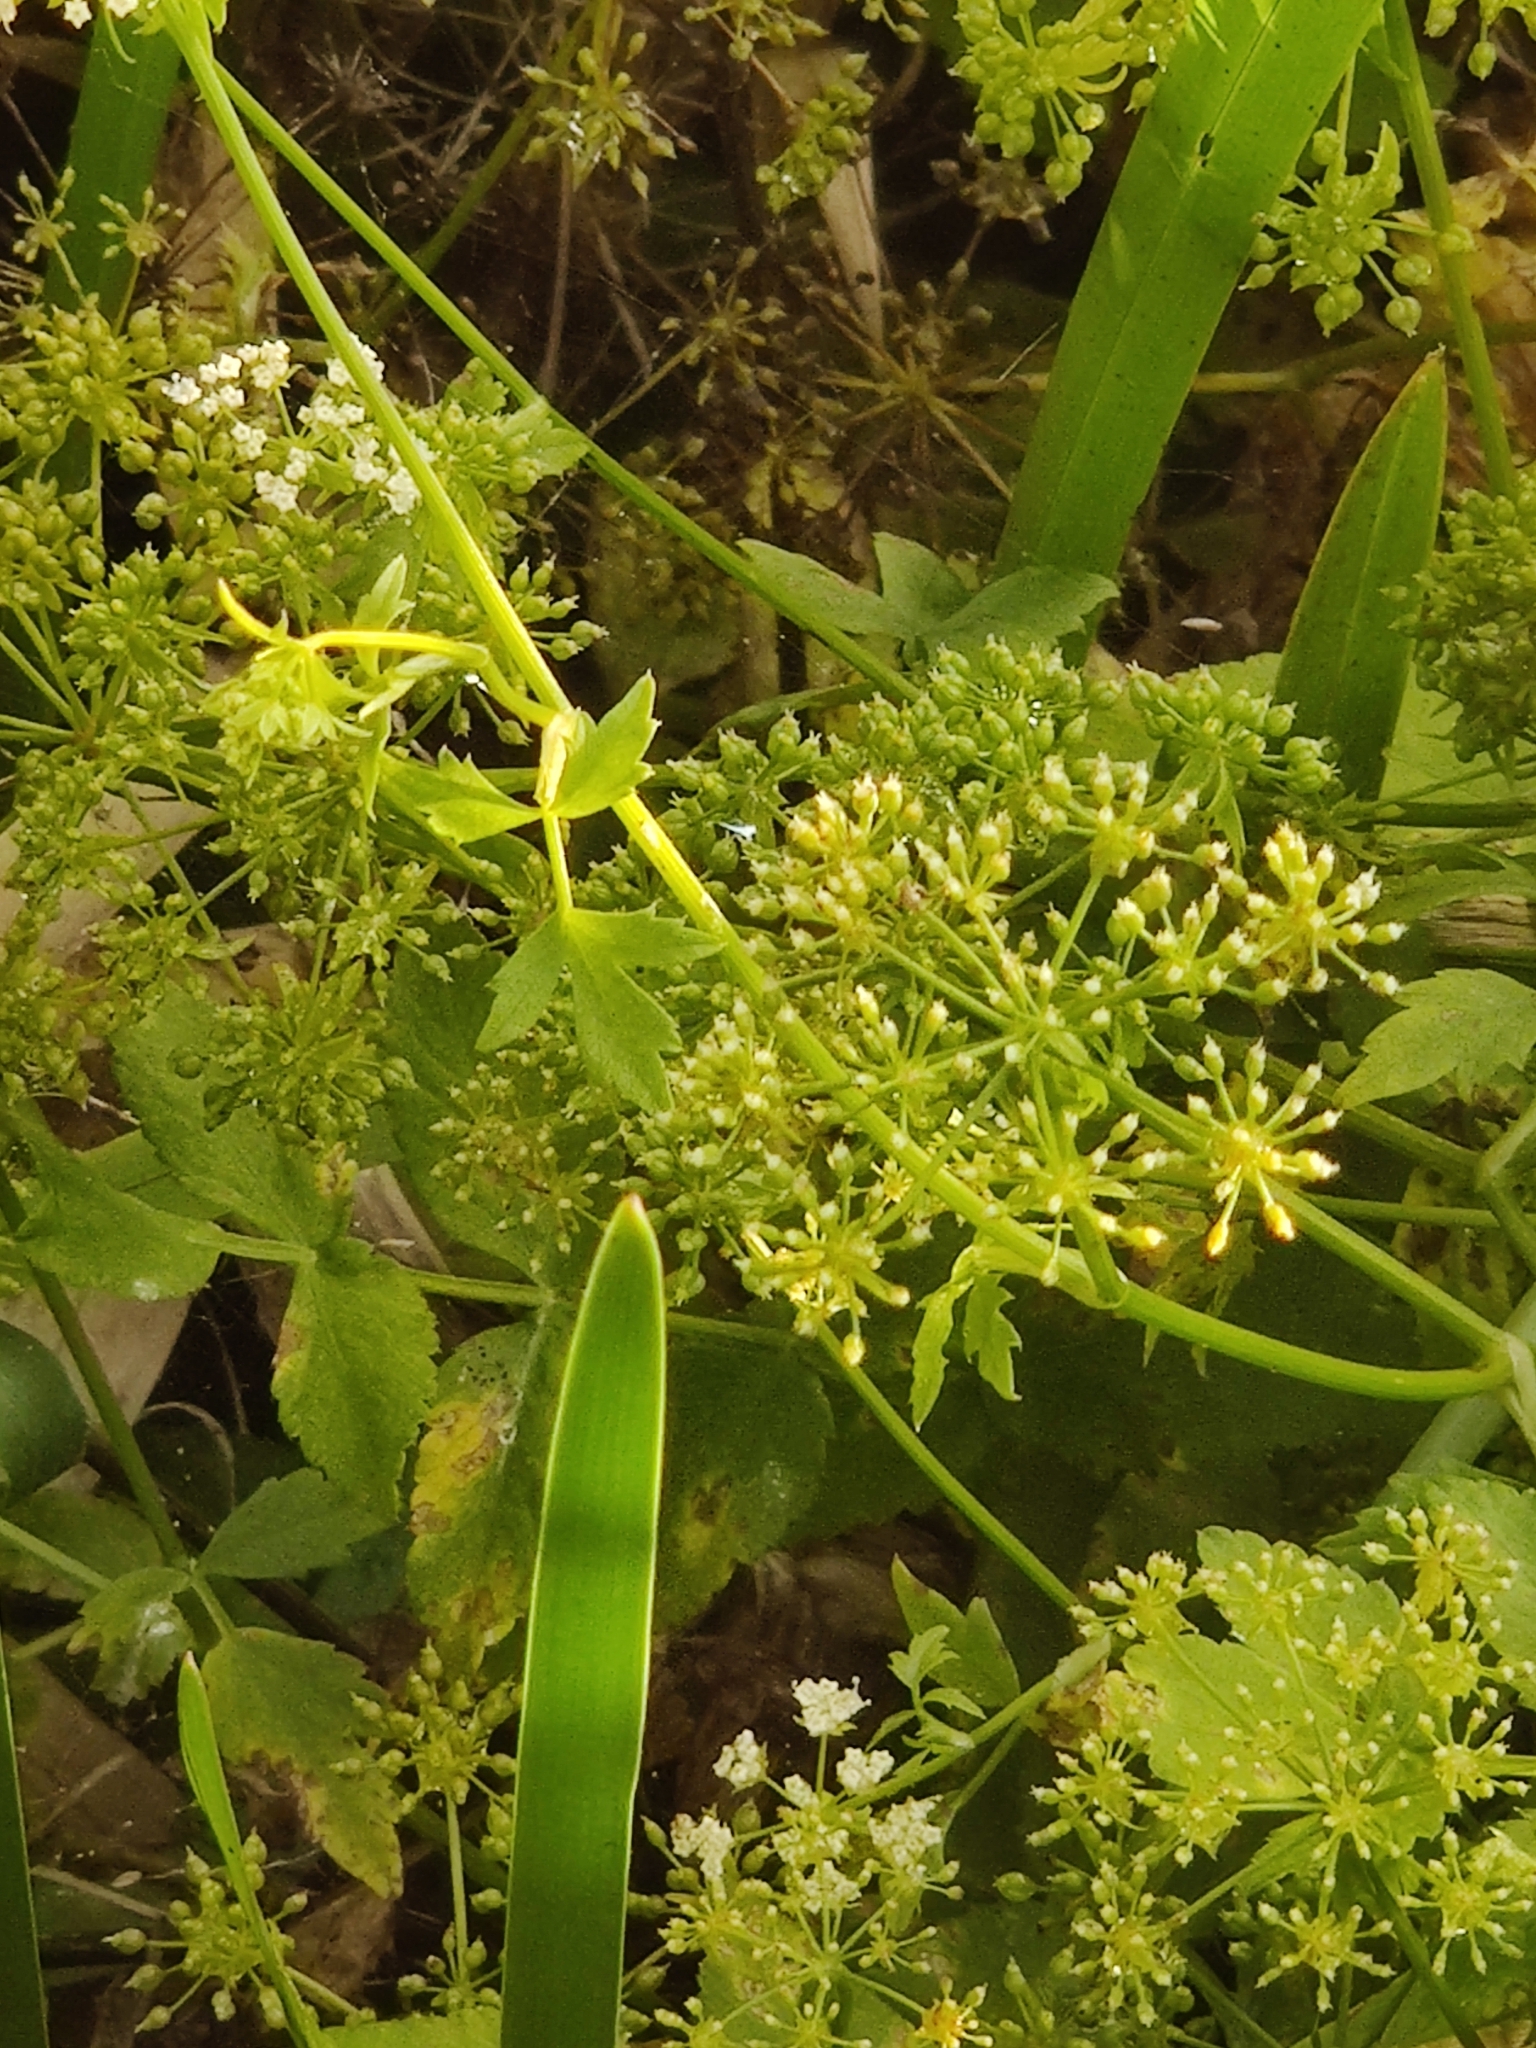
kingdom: Plantae
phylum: Tracheophyta
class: Magnoliopsida
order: Apiales
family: Apiaceae
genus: Berula
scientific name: Berula erecta
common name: Lesser water-parsnip
